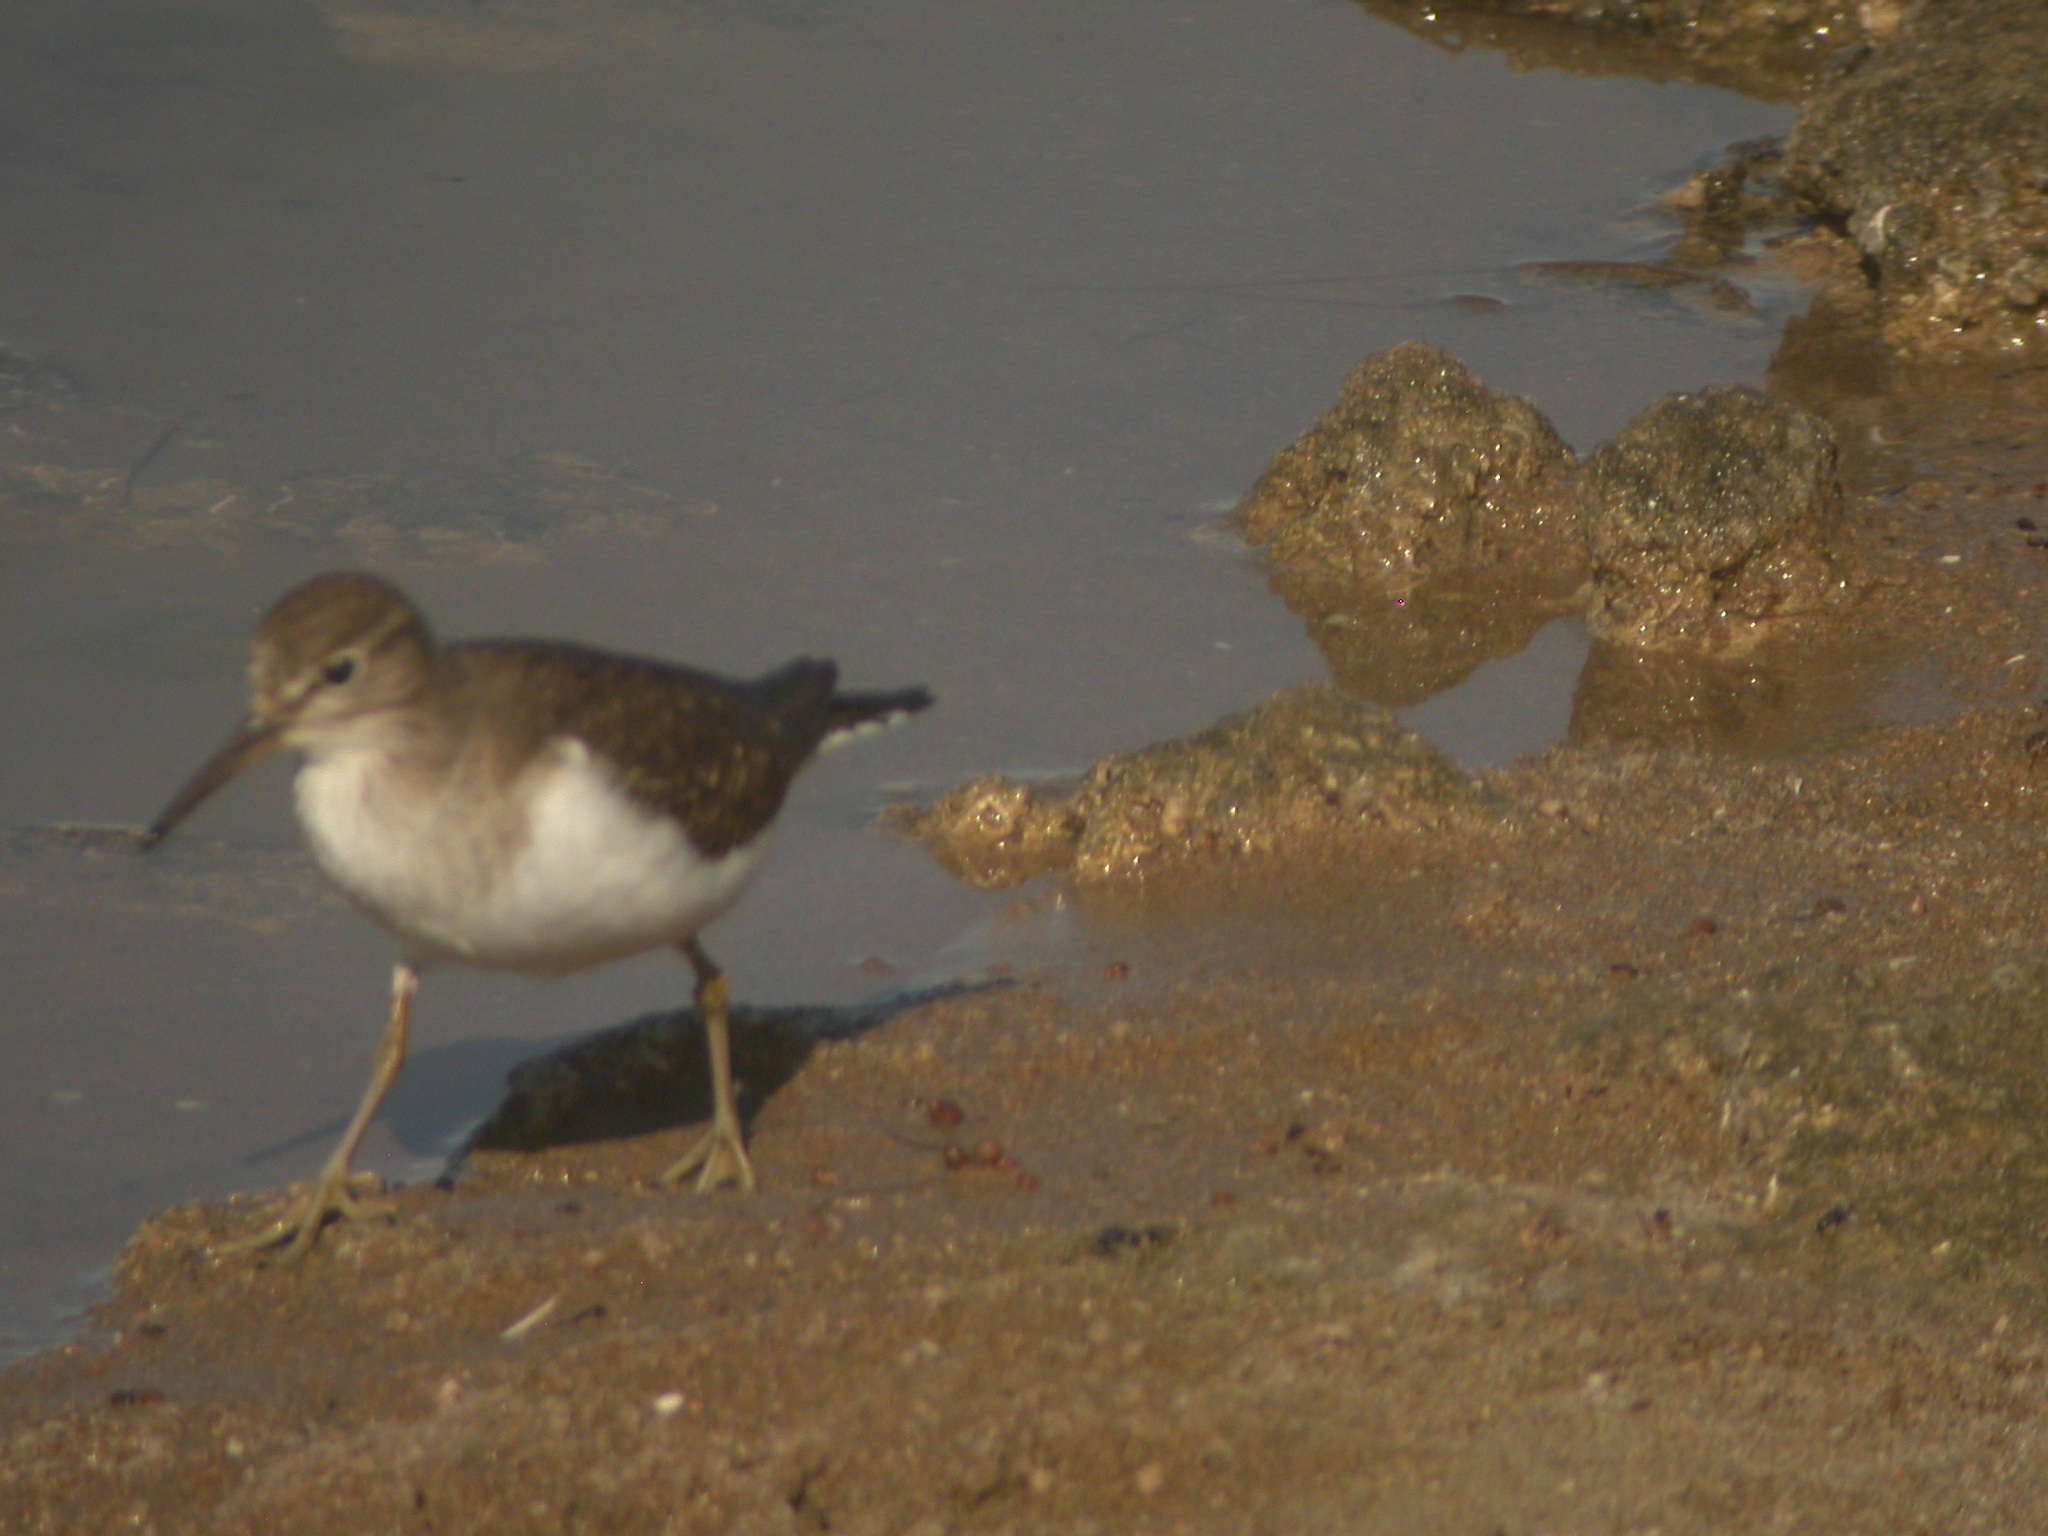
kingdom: Animalia
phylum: Chordata
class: Aves
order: Charadriiformes
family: Scolopacidae
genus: Actitis
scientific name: Actitis hypoleucos
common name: Common sandpiper
